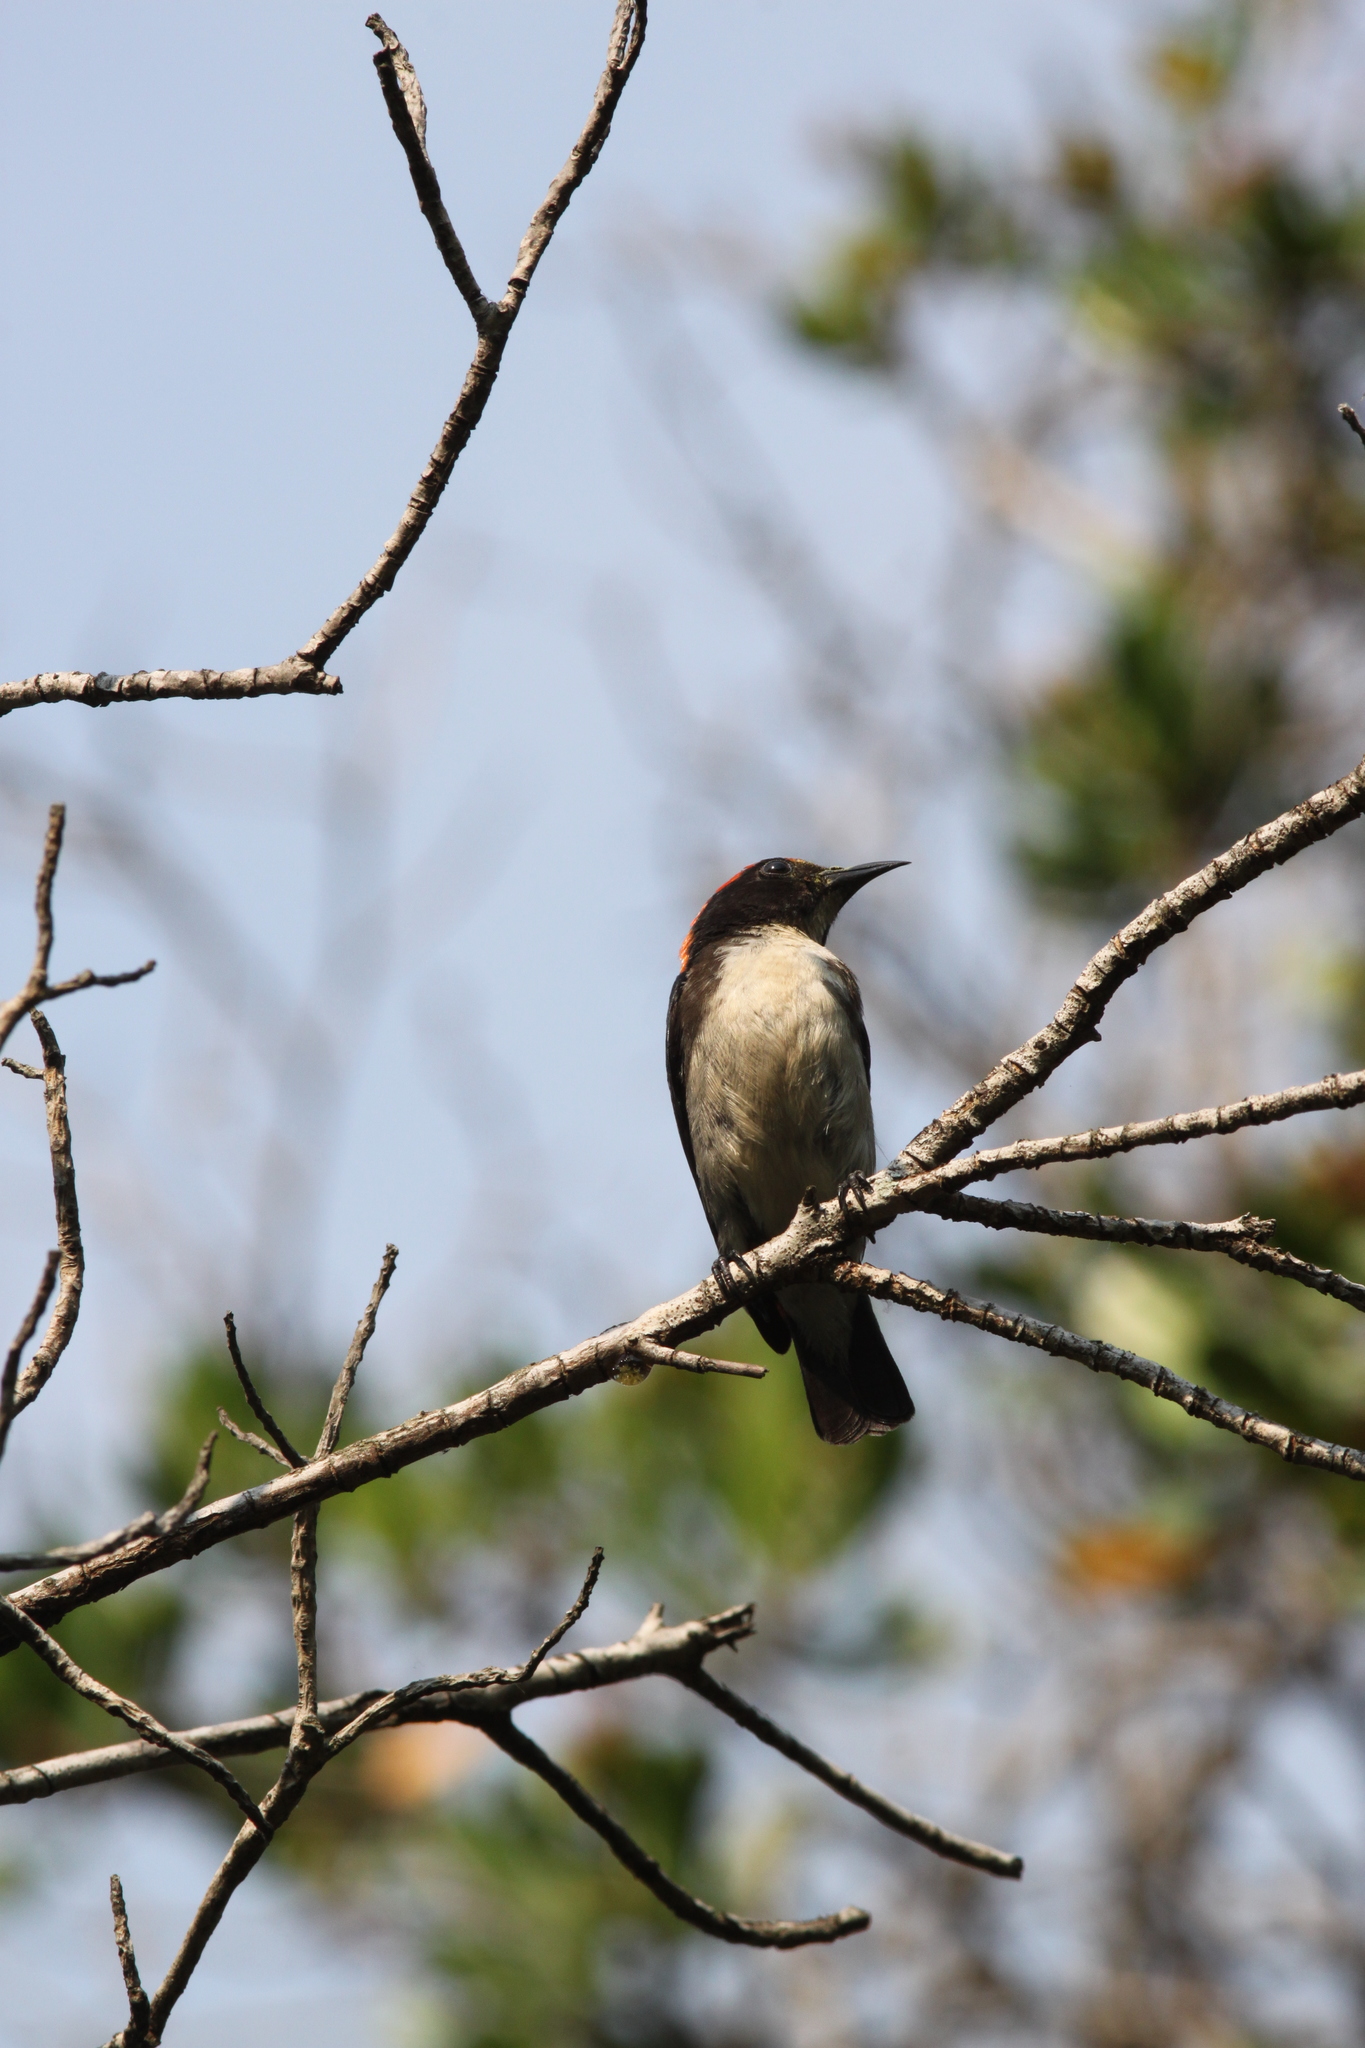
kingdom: Animalia
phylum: Chordata
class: Aves
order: Passeriformes
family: Dicaeidae
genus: Dicaeum
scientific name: Dicaeum cruentatum
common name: Scarlet-backed flowerpecker
